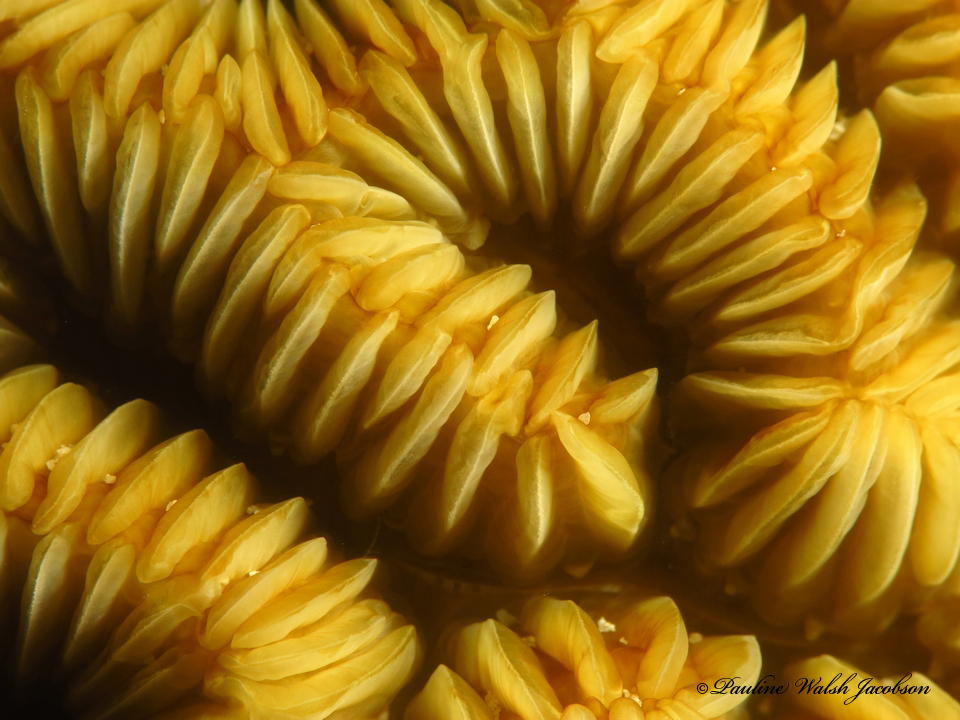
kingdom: Animalia
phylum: Cnidaria
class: Anthozoa
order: Scleractinia
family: Meandrinidae
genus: Meandrina
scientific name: Meandrina meandrites
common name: Maze coral
